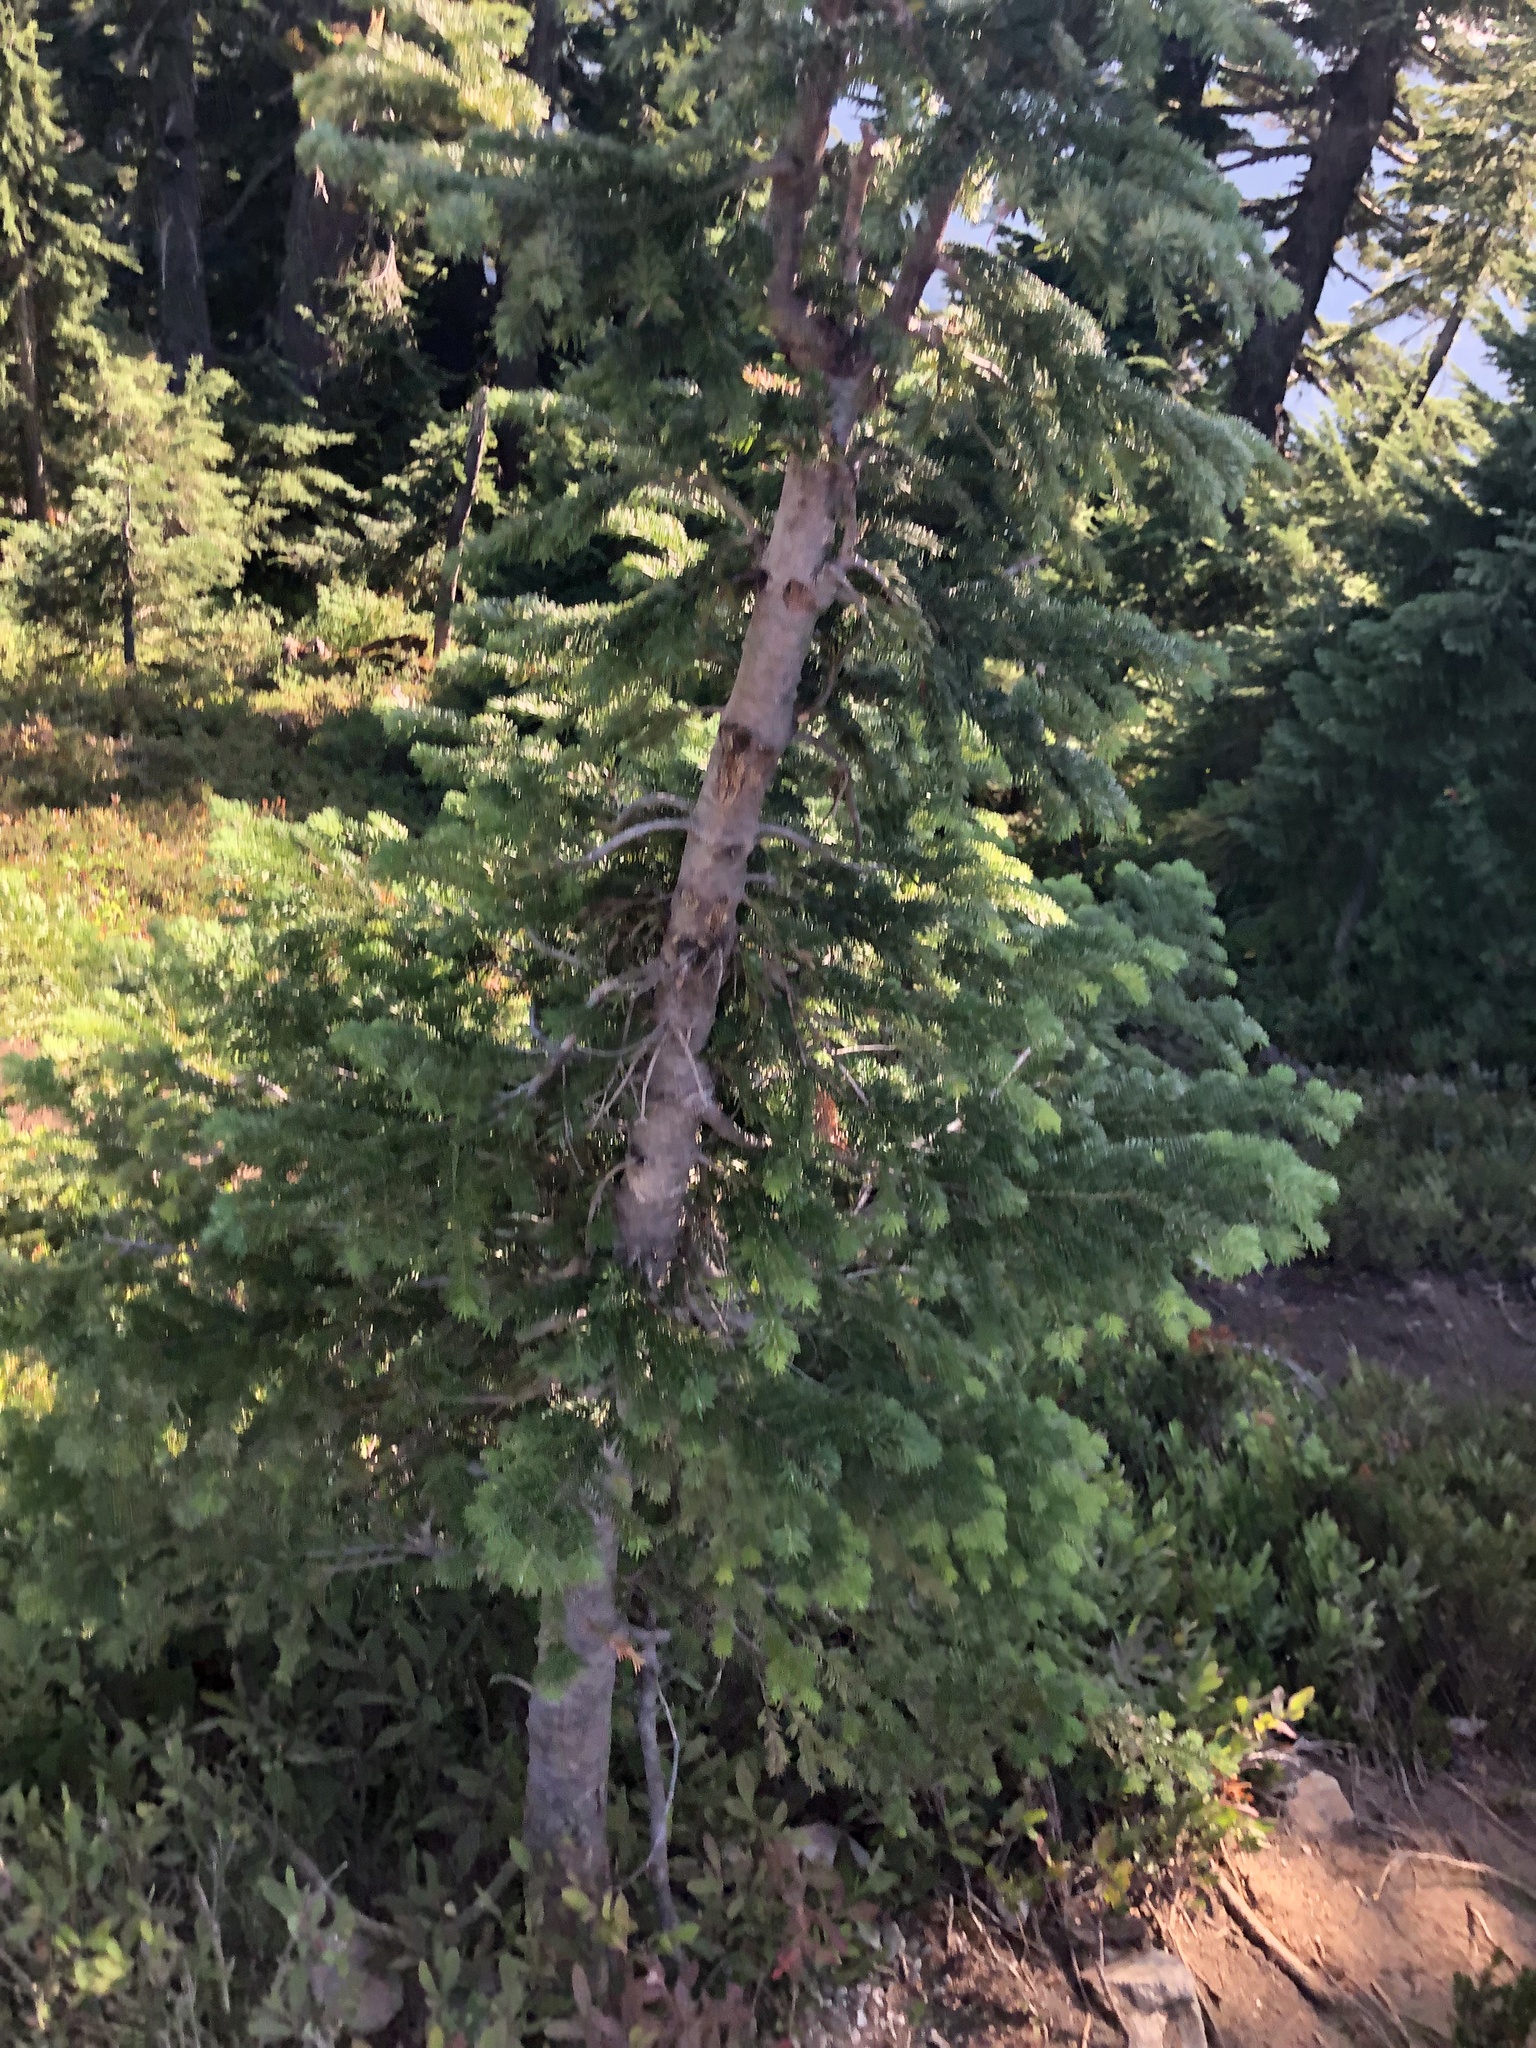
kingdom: Plantae
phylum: Tracheophyta
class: Pinopsida
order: Pinales
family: Pinaceae
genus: Abies
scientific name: Abies amabilis
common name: Pacific silver fir
